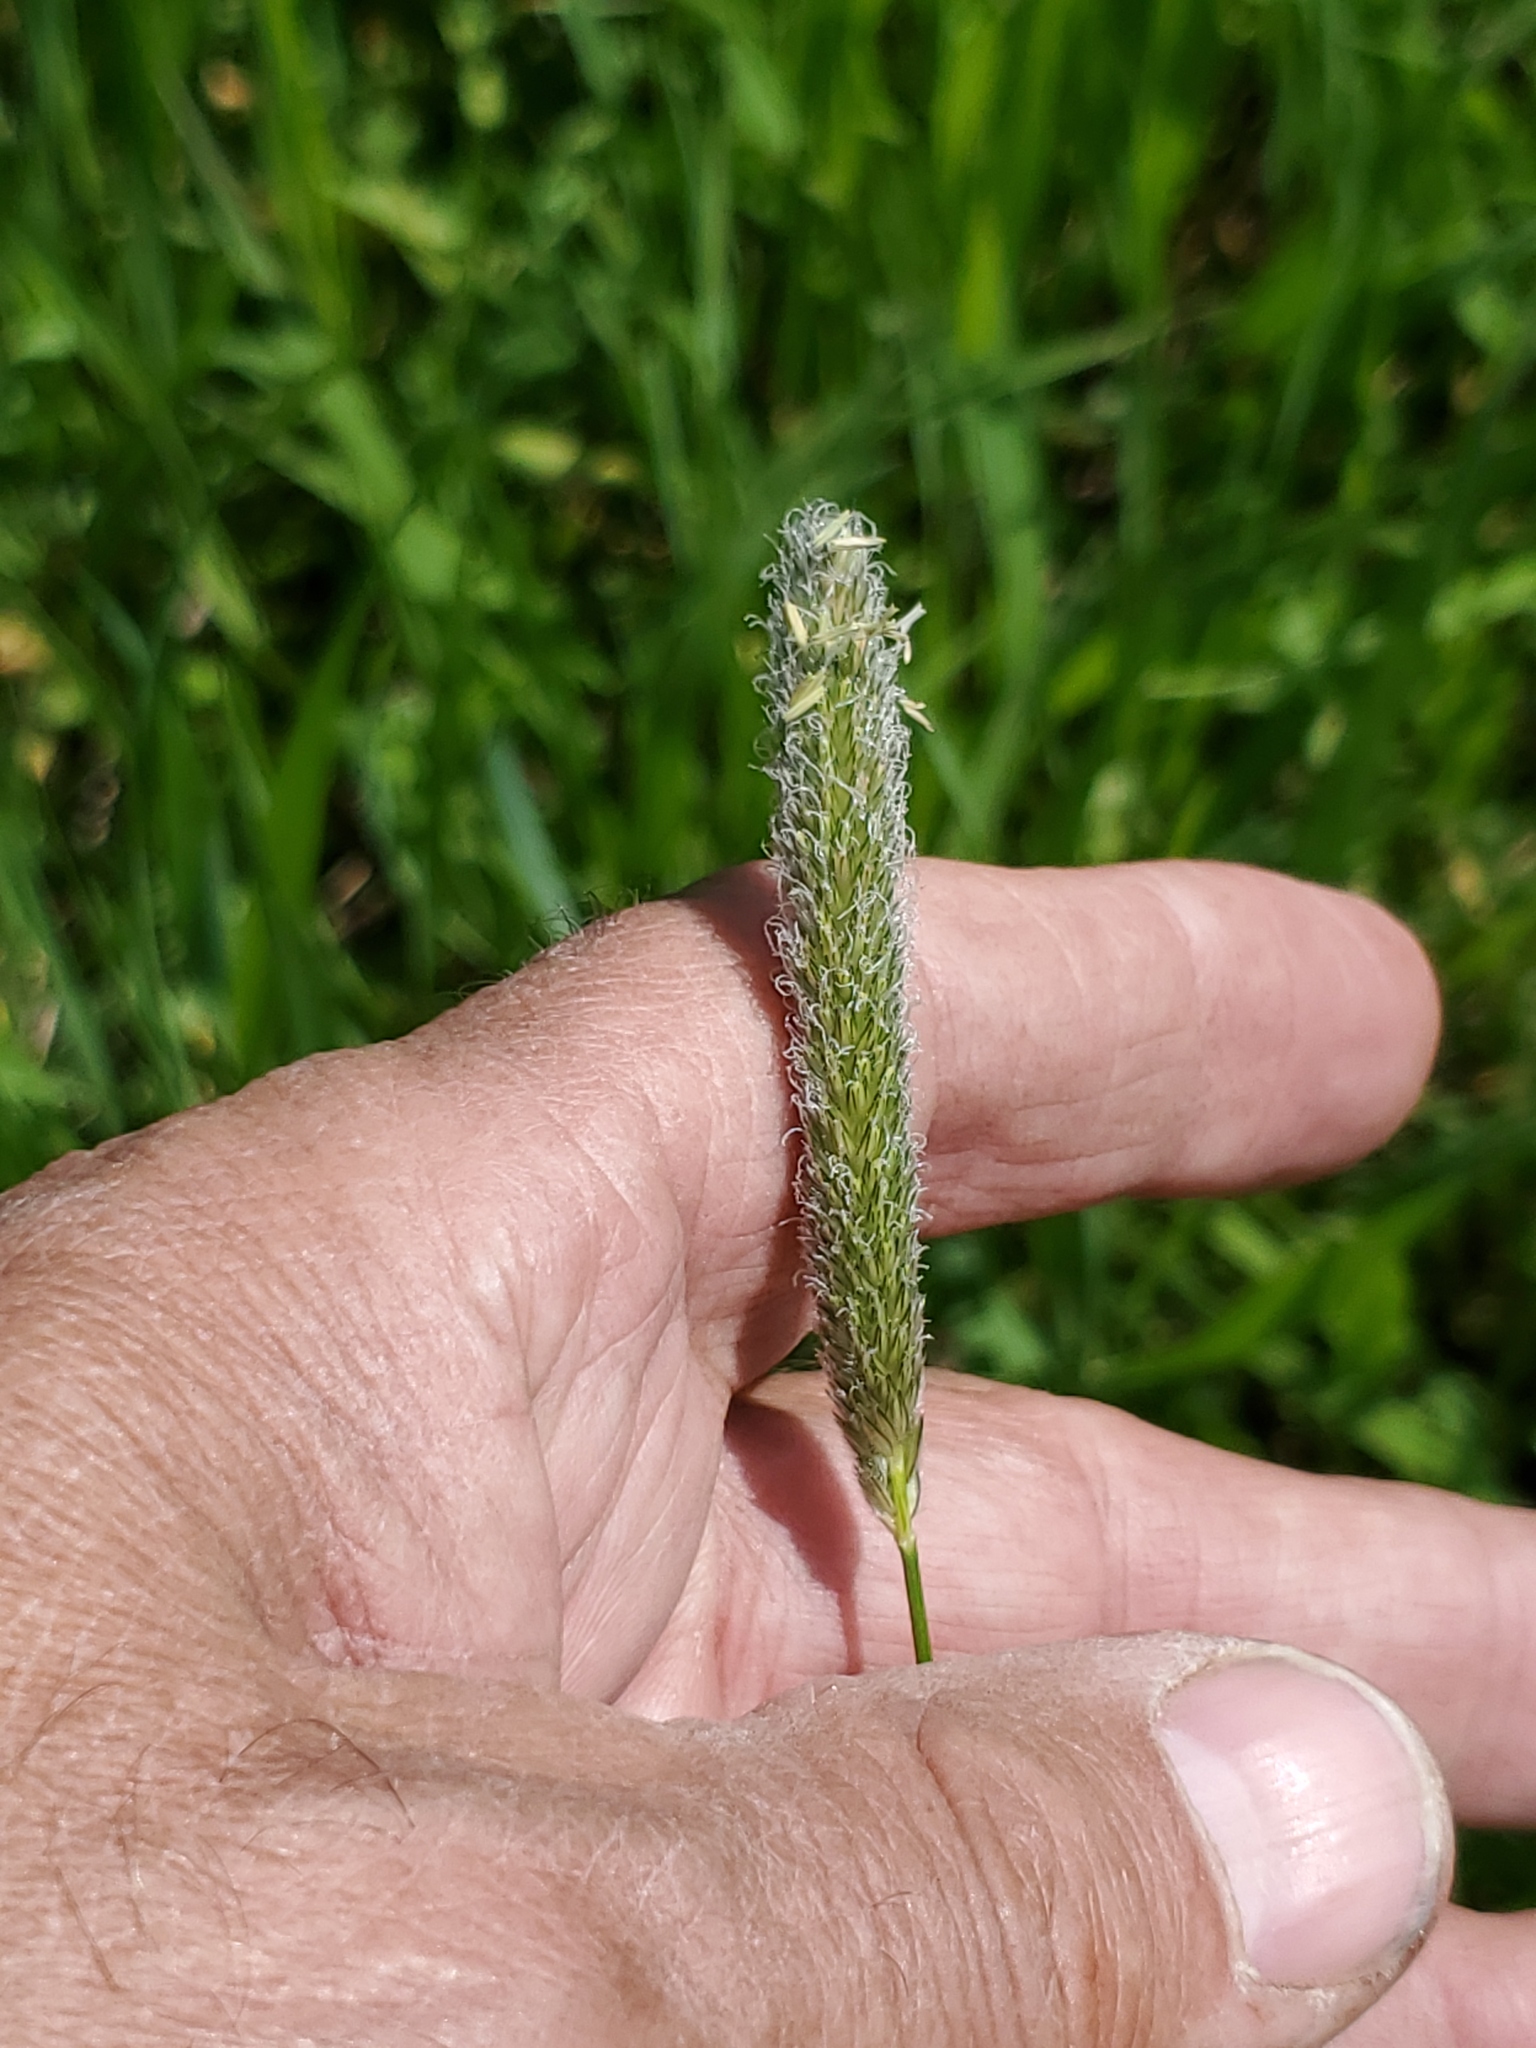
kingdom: Plantae
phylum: Tracheophyta
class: Liliopsida
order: Poales
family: Poaceae
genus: Phleum
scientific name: Phleum pratense
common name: Timothy grass
